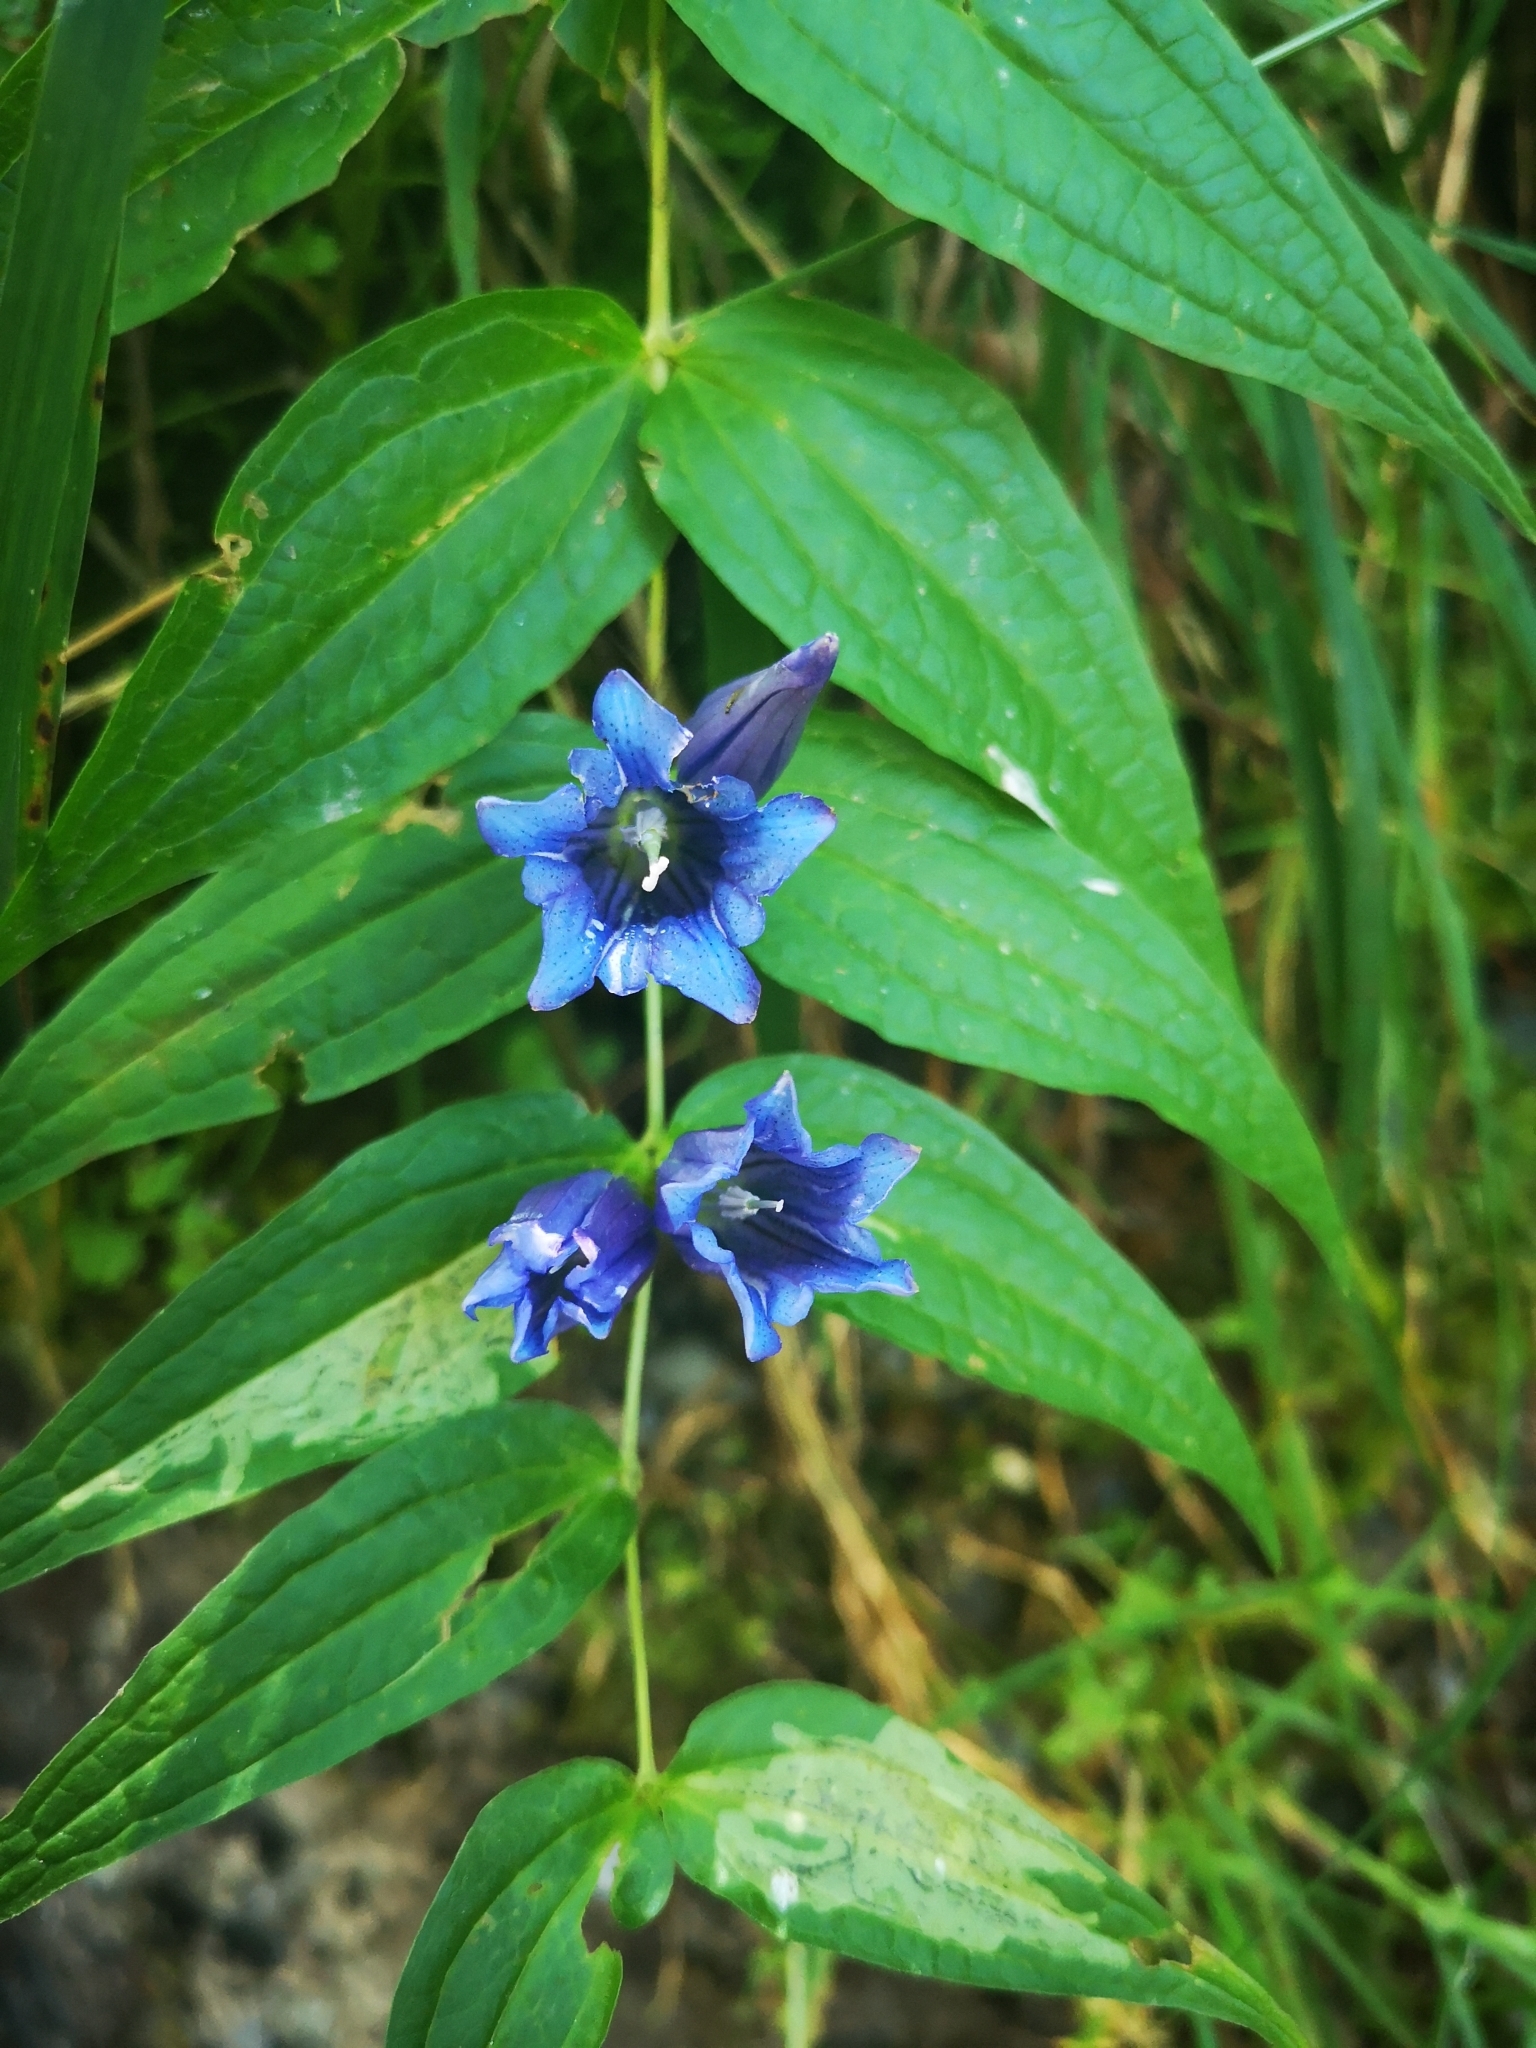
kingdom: Plantae
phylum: Tracheophyta
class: Magnoliopsida
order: Gentianales
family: Gentianaceae
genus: Gentiana
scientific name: Gentiana asclepiadea
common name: Willow gentian
